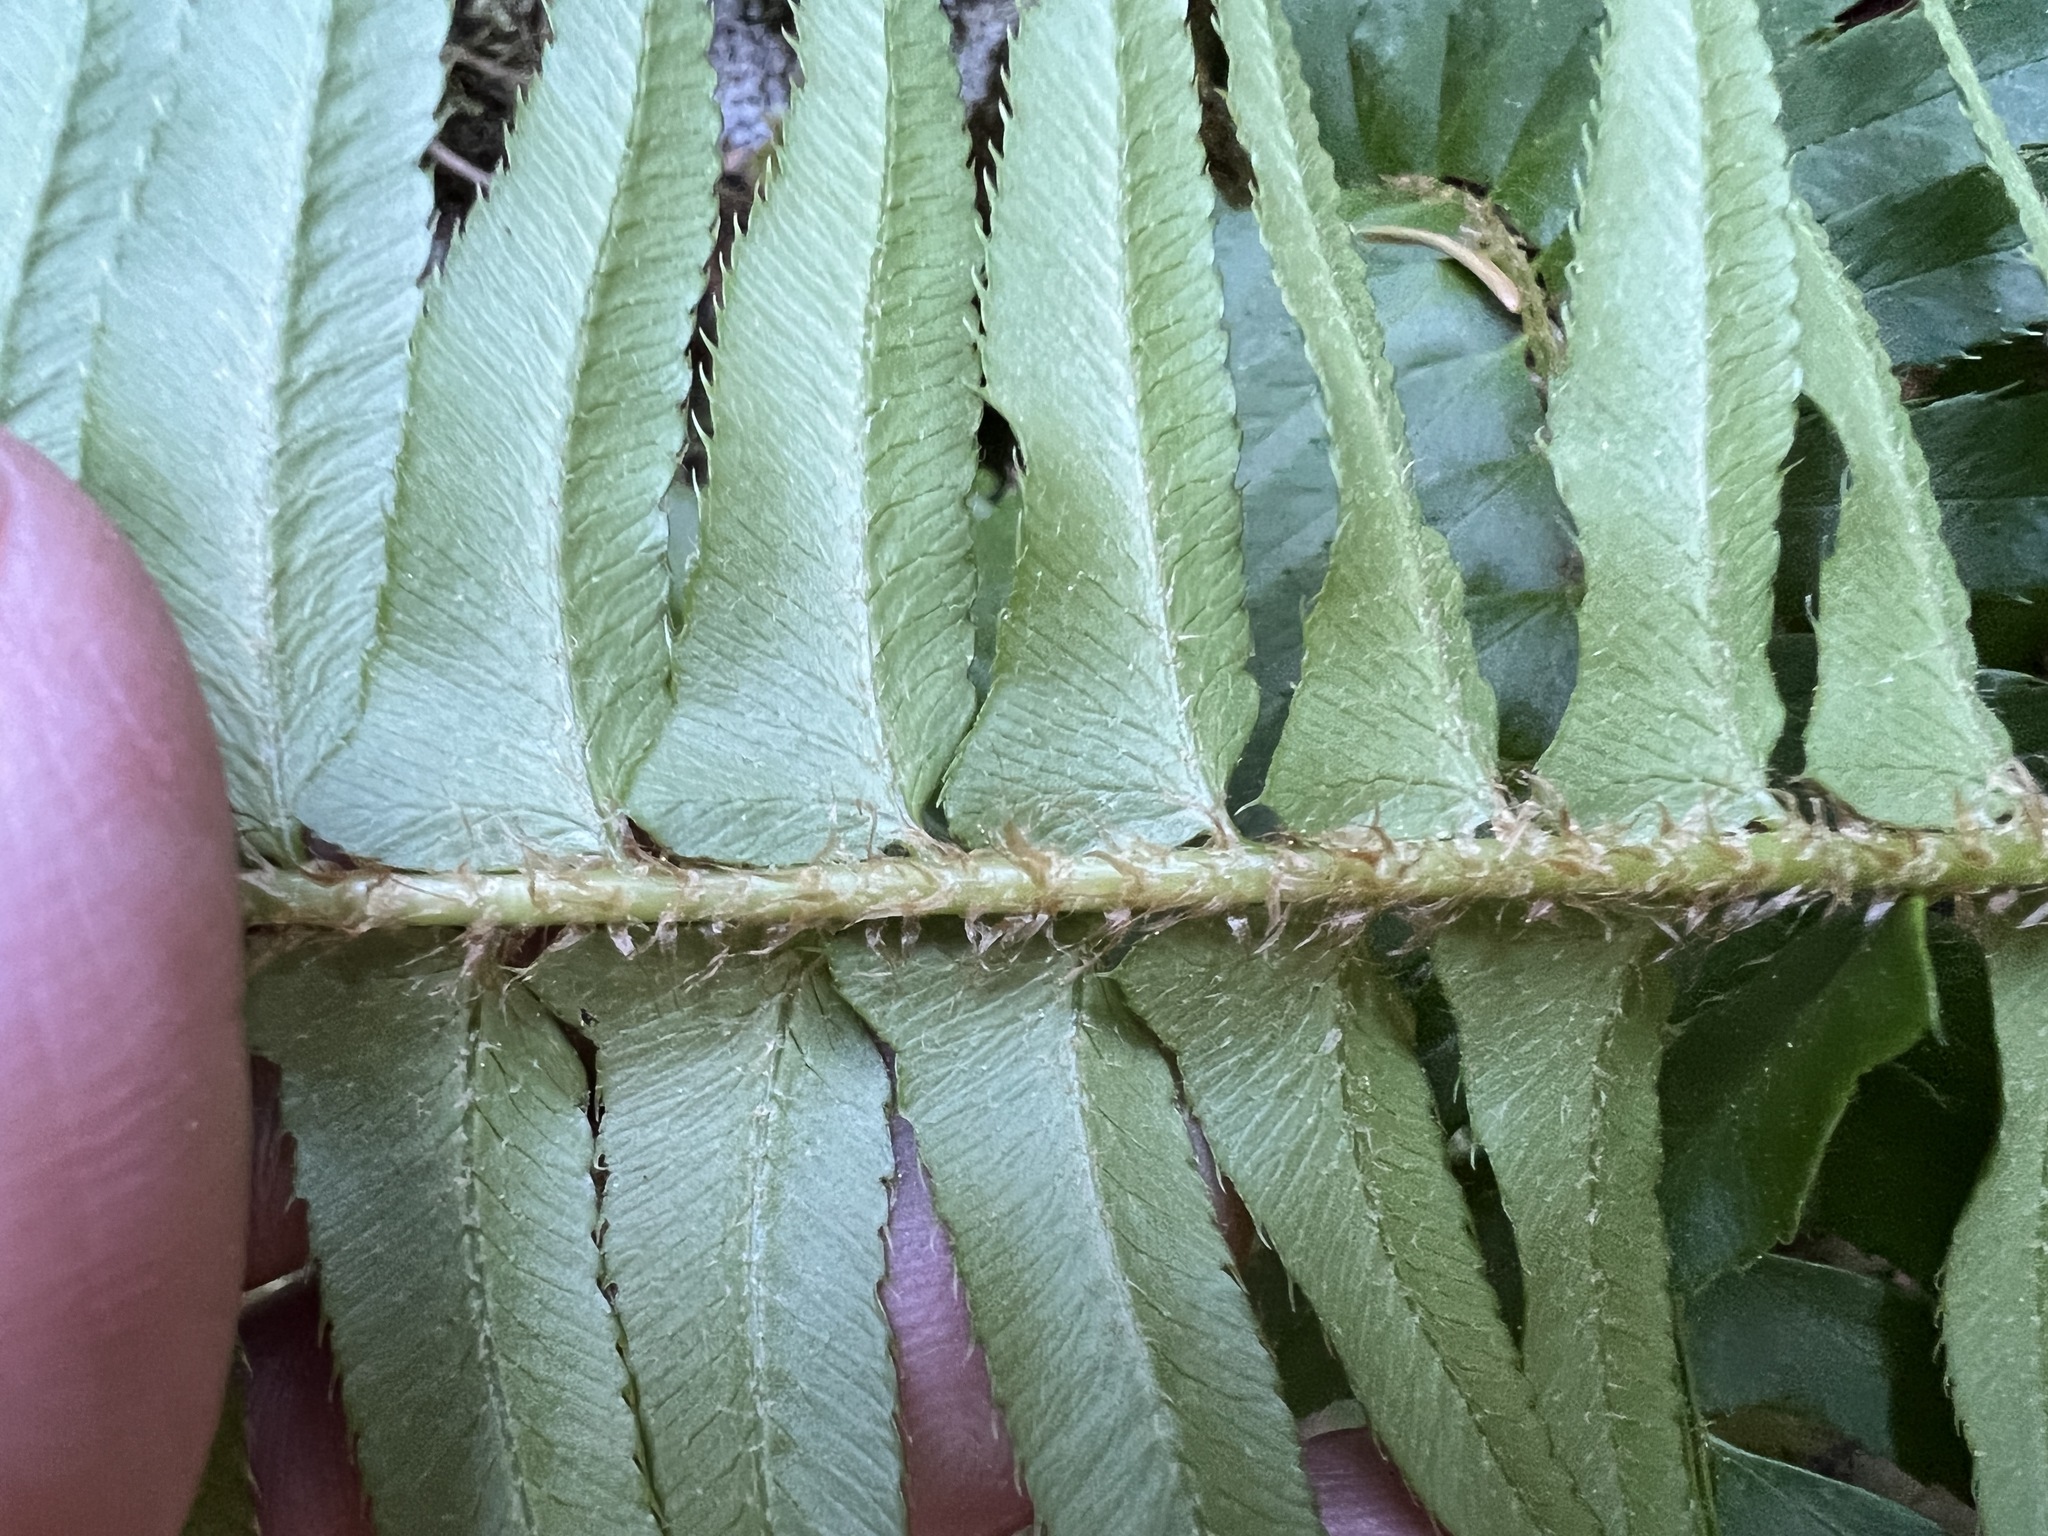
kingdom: Plantae
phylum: Tracheophyta
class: Polypodiopsida
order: Polypodiales
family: Dryopteridaceae
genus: Polystichum
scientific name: Polystichum munitum
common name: Western sword-fern
